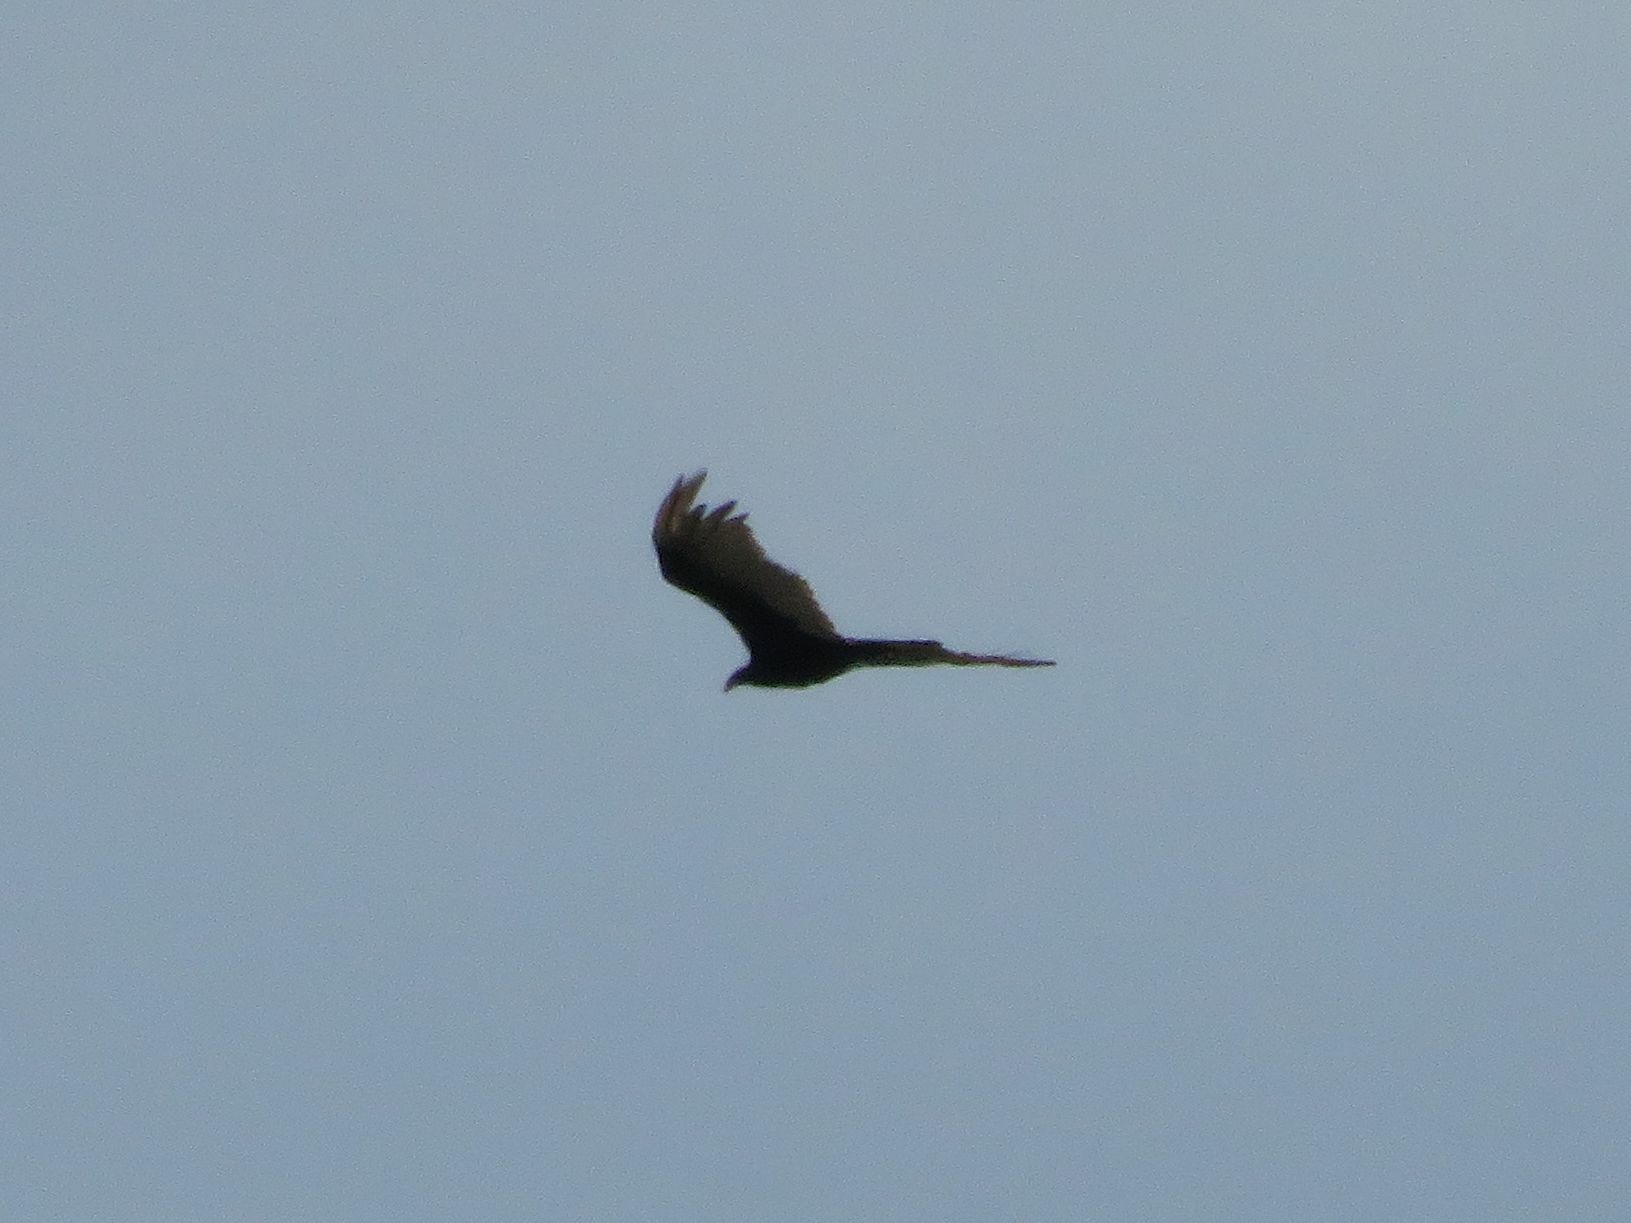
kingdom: Animalia
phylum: Chordata
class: Aves
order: Accipitriformes
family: Cathartidae
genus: Cathartes
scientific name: Cathartes aura
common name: Turkey vulture
